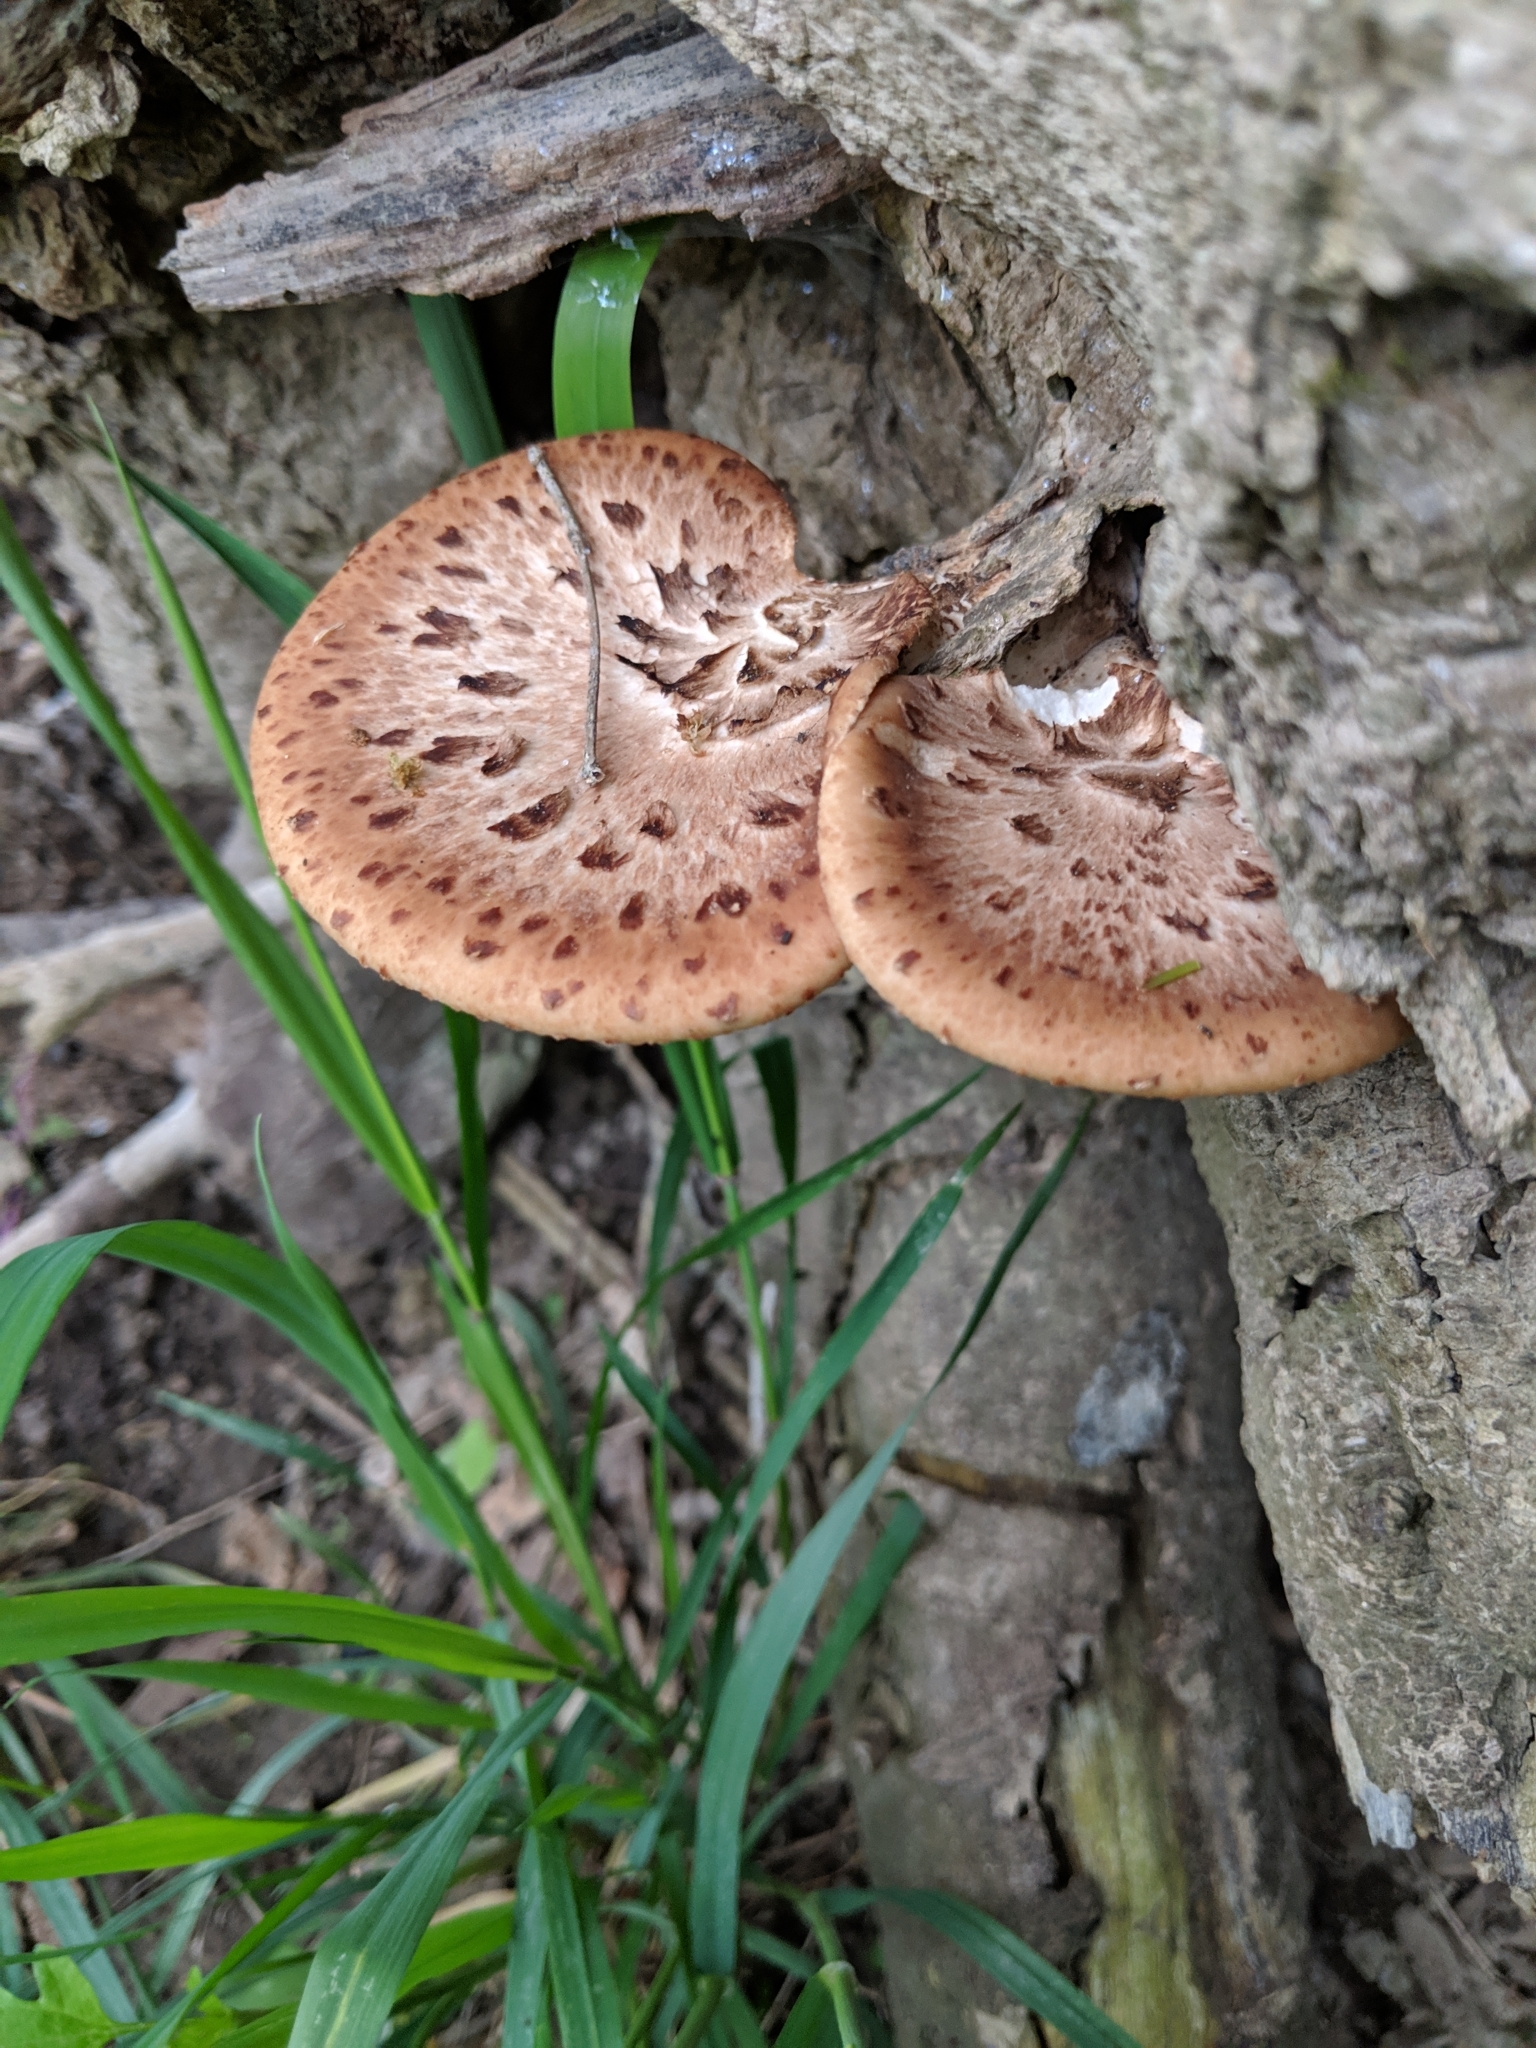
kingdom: Fungi
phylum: Basidiomycota
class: Agaricomycetes
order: Polyporales
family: Polyporaceae
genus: Cerioporus
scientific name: Cerioporus squamosus
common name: Dryad's saddle
